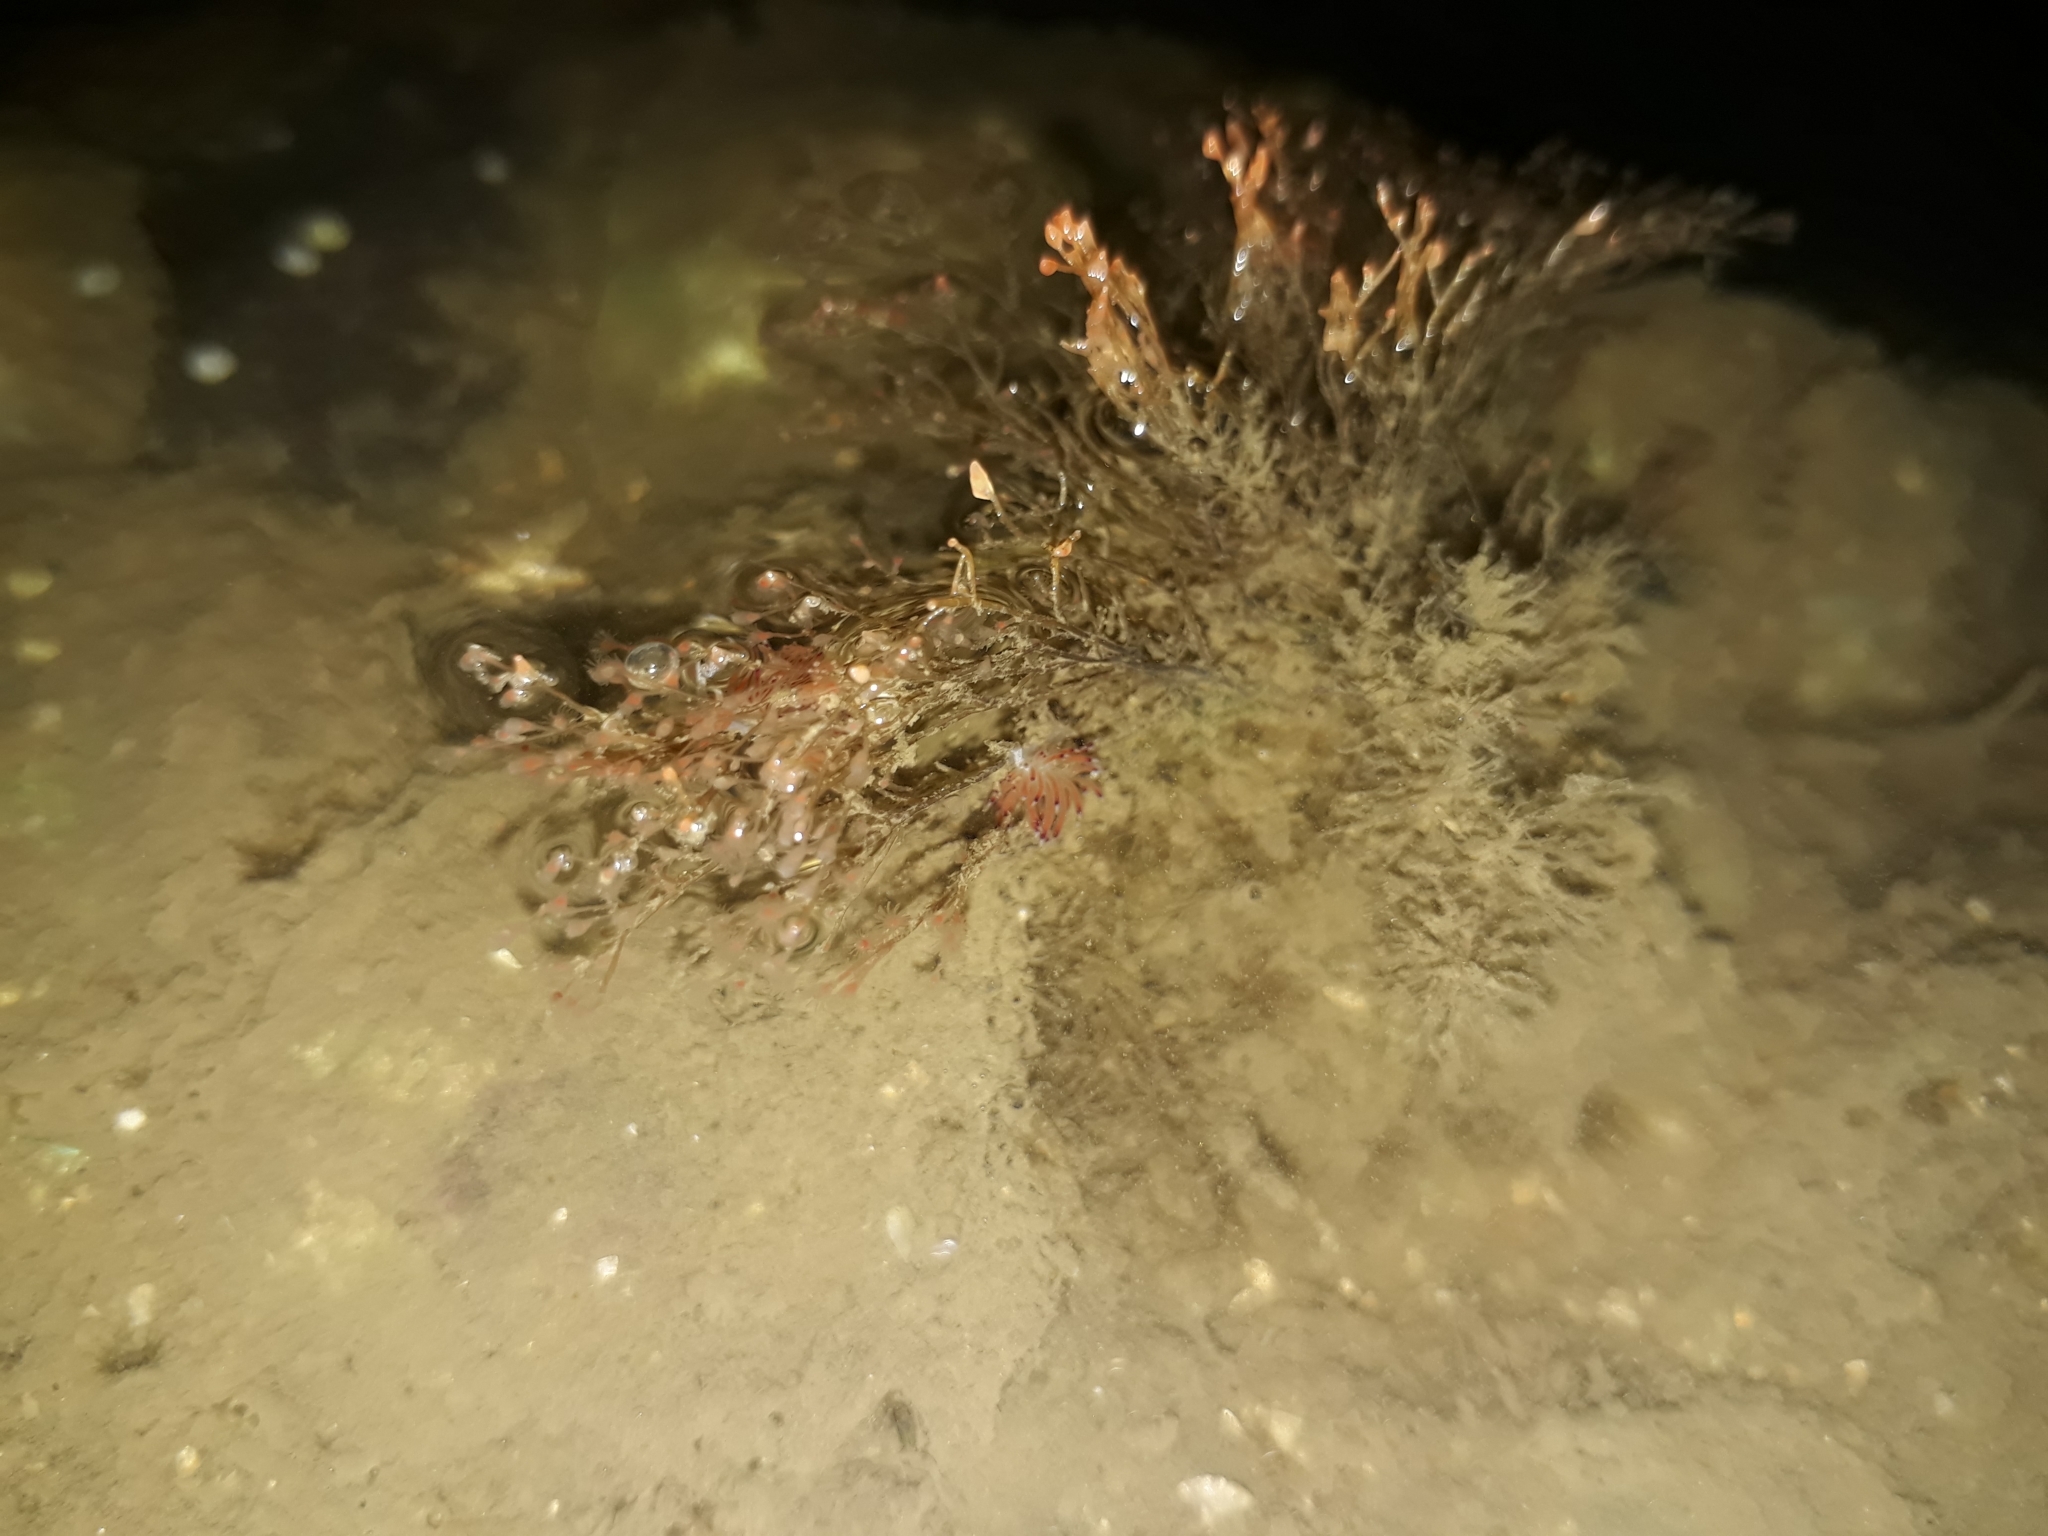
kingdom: Animalia
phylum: Mollusca
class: Gastropoda
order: Nudibranchia
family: Facelinidae
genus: Cratena
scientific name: Cratena
